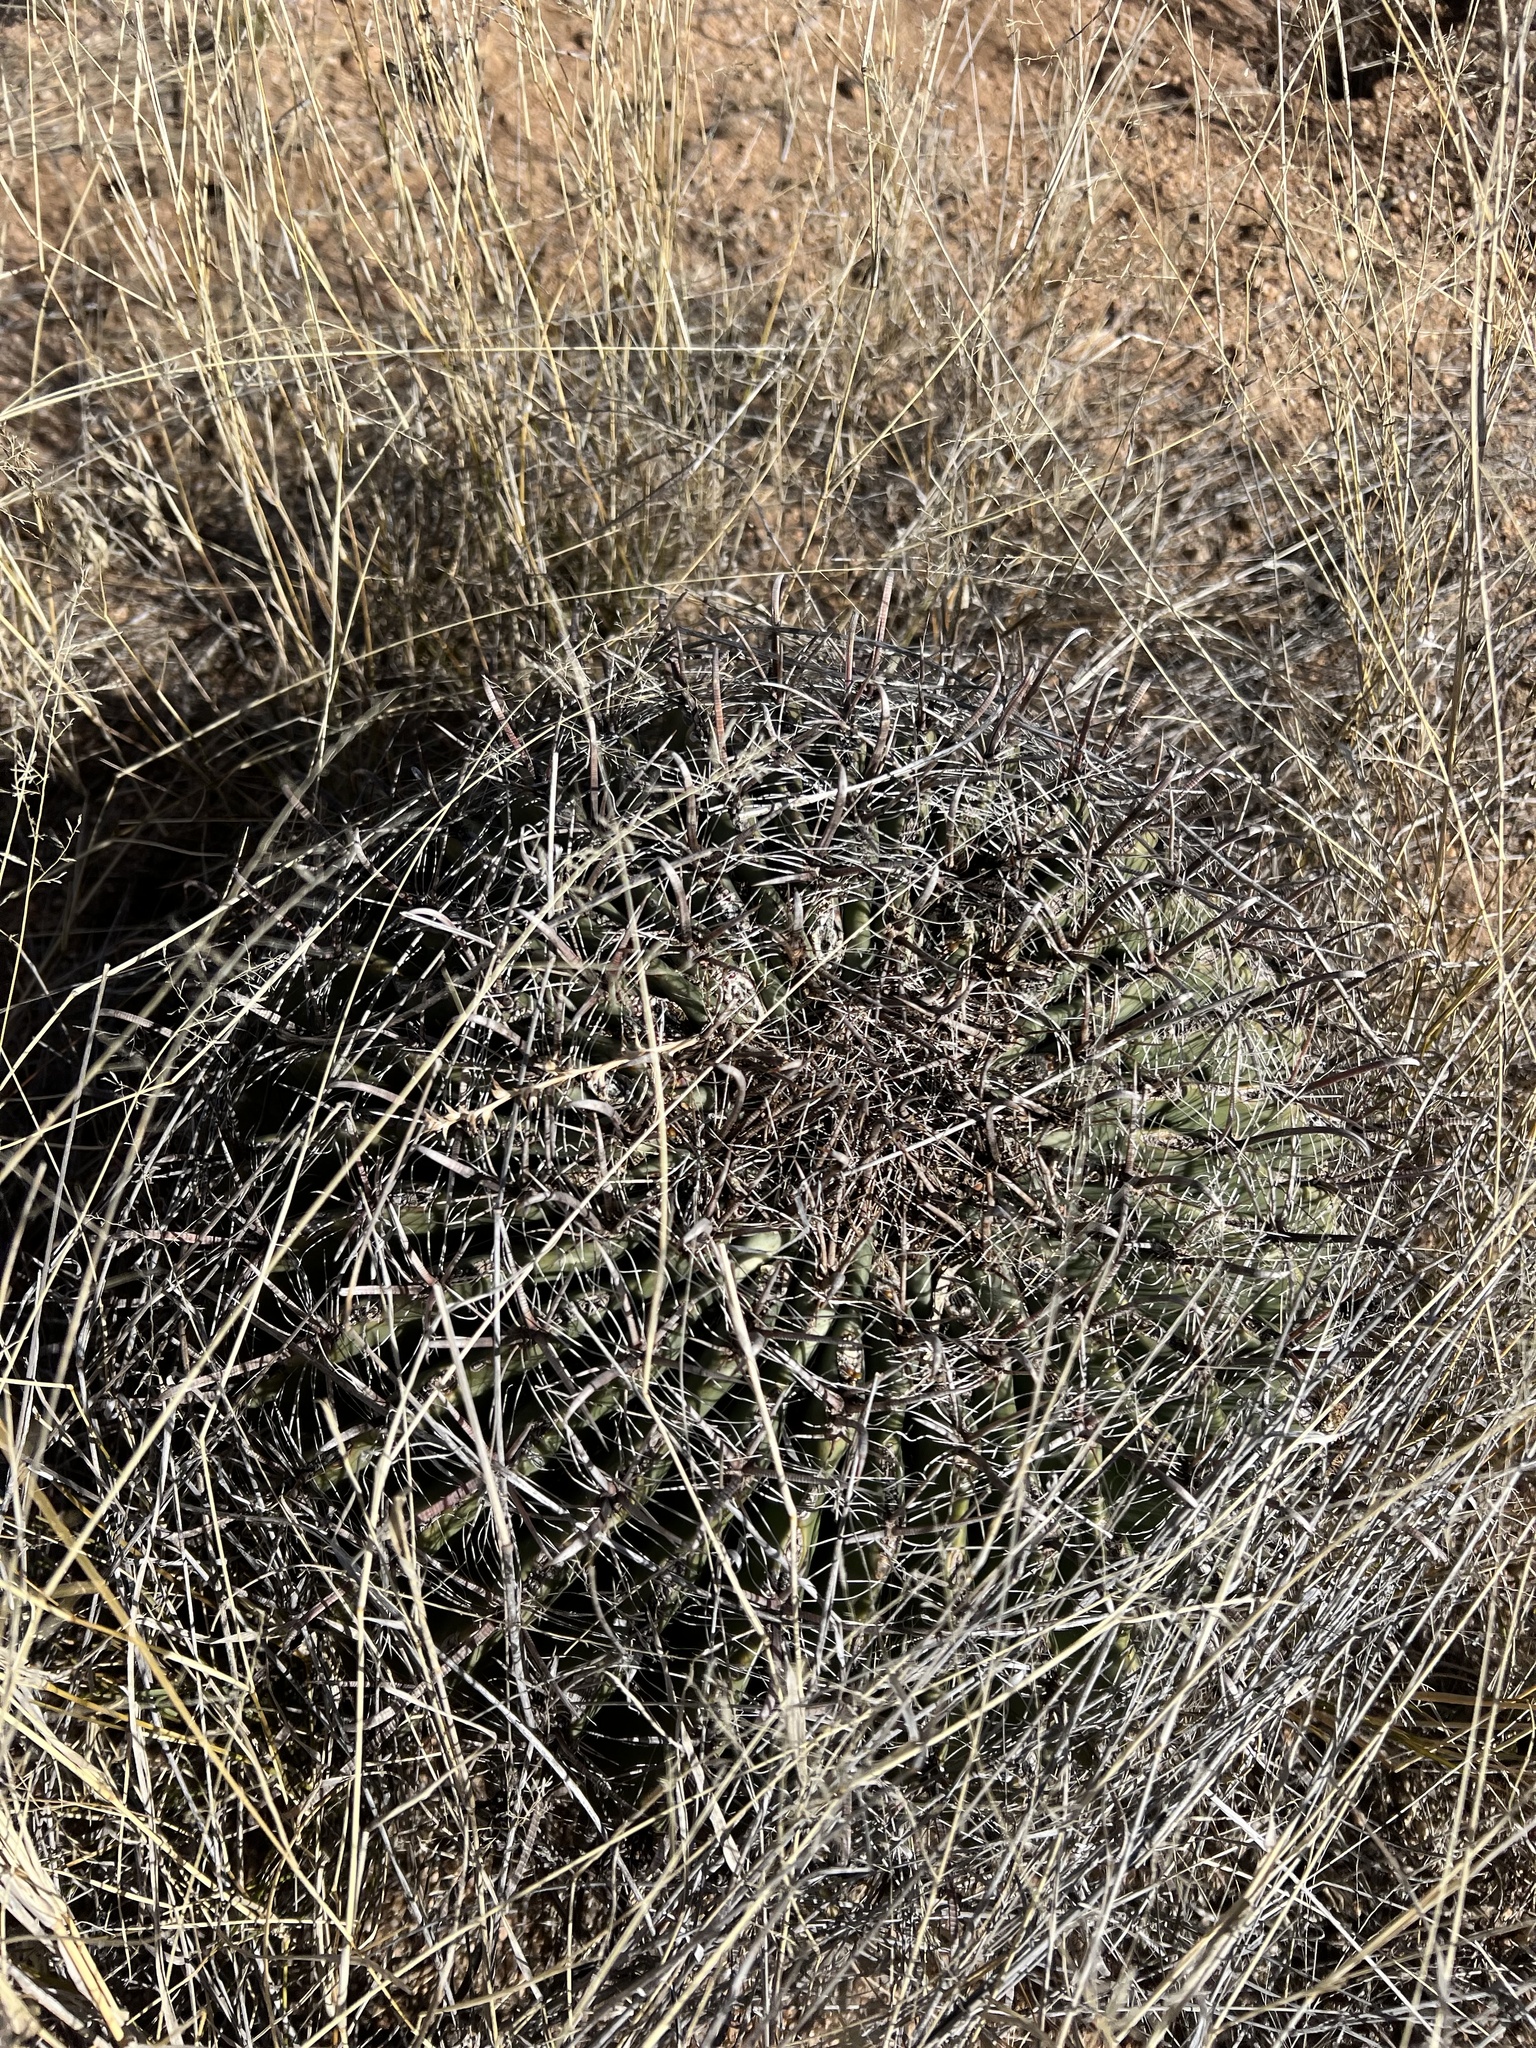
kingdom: Plantae
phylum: Tracheophyta
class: Magnoliopsida
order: Caryophyllales
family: Cactaceae
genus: Ferocactus
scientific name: Ferocactus wislizeni
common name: Candy barrel cactus
